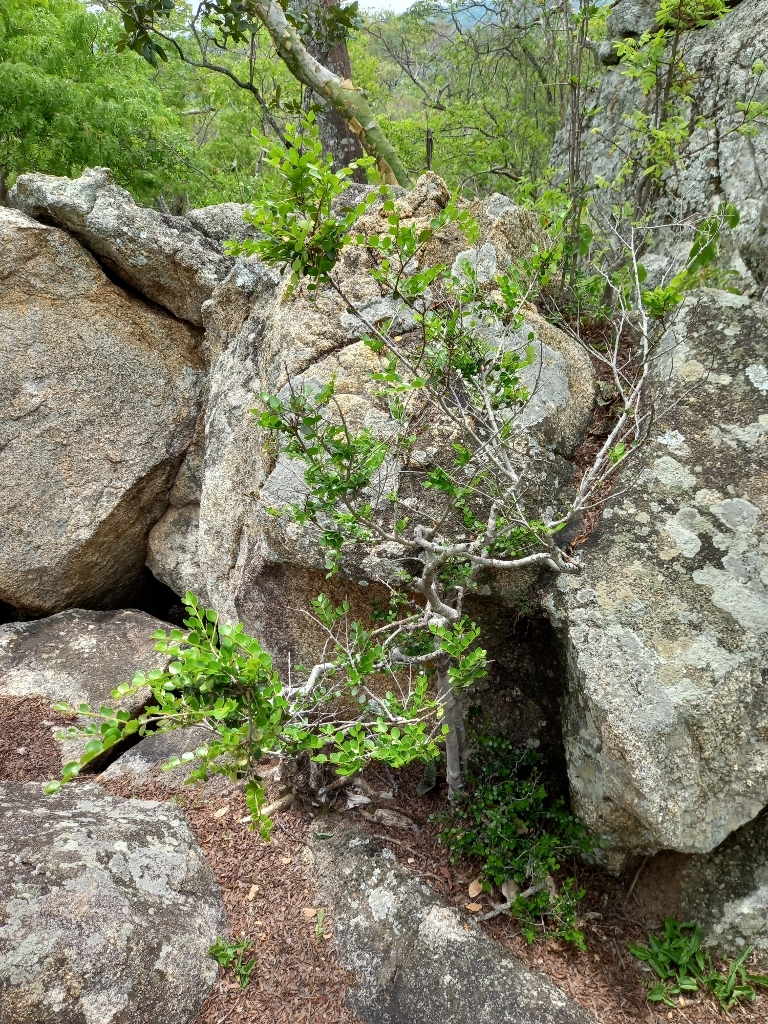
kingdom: Plantae
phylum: Tracheophyta
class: Magnoliopsida
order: Ericales
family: Ebenaceae
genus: Diospyros
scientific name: Diospyros natalensis
